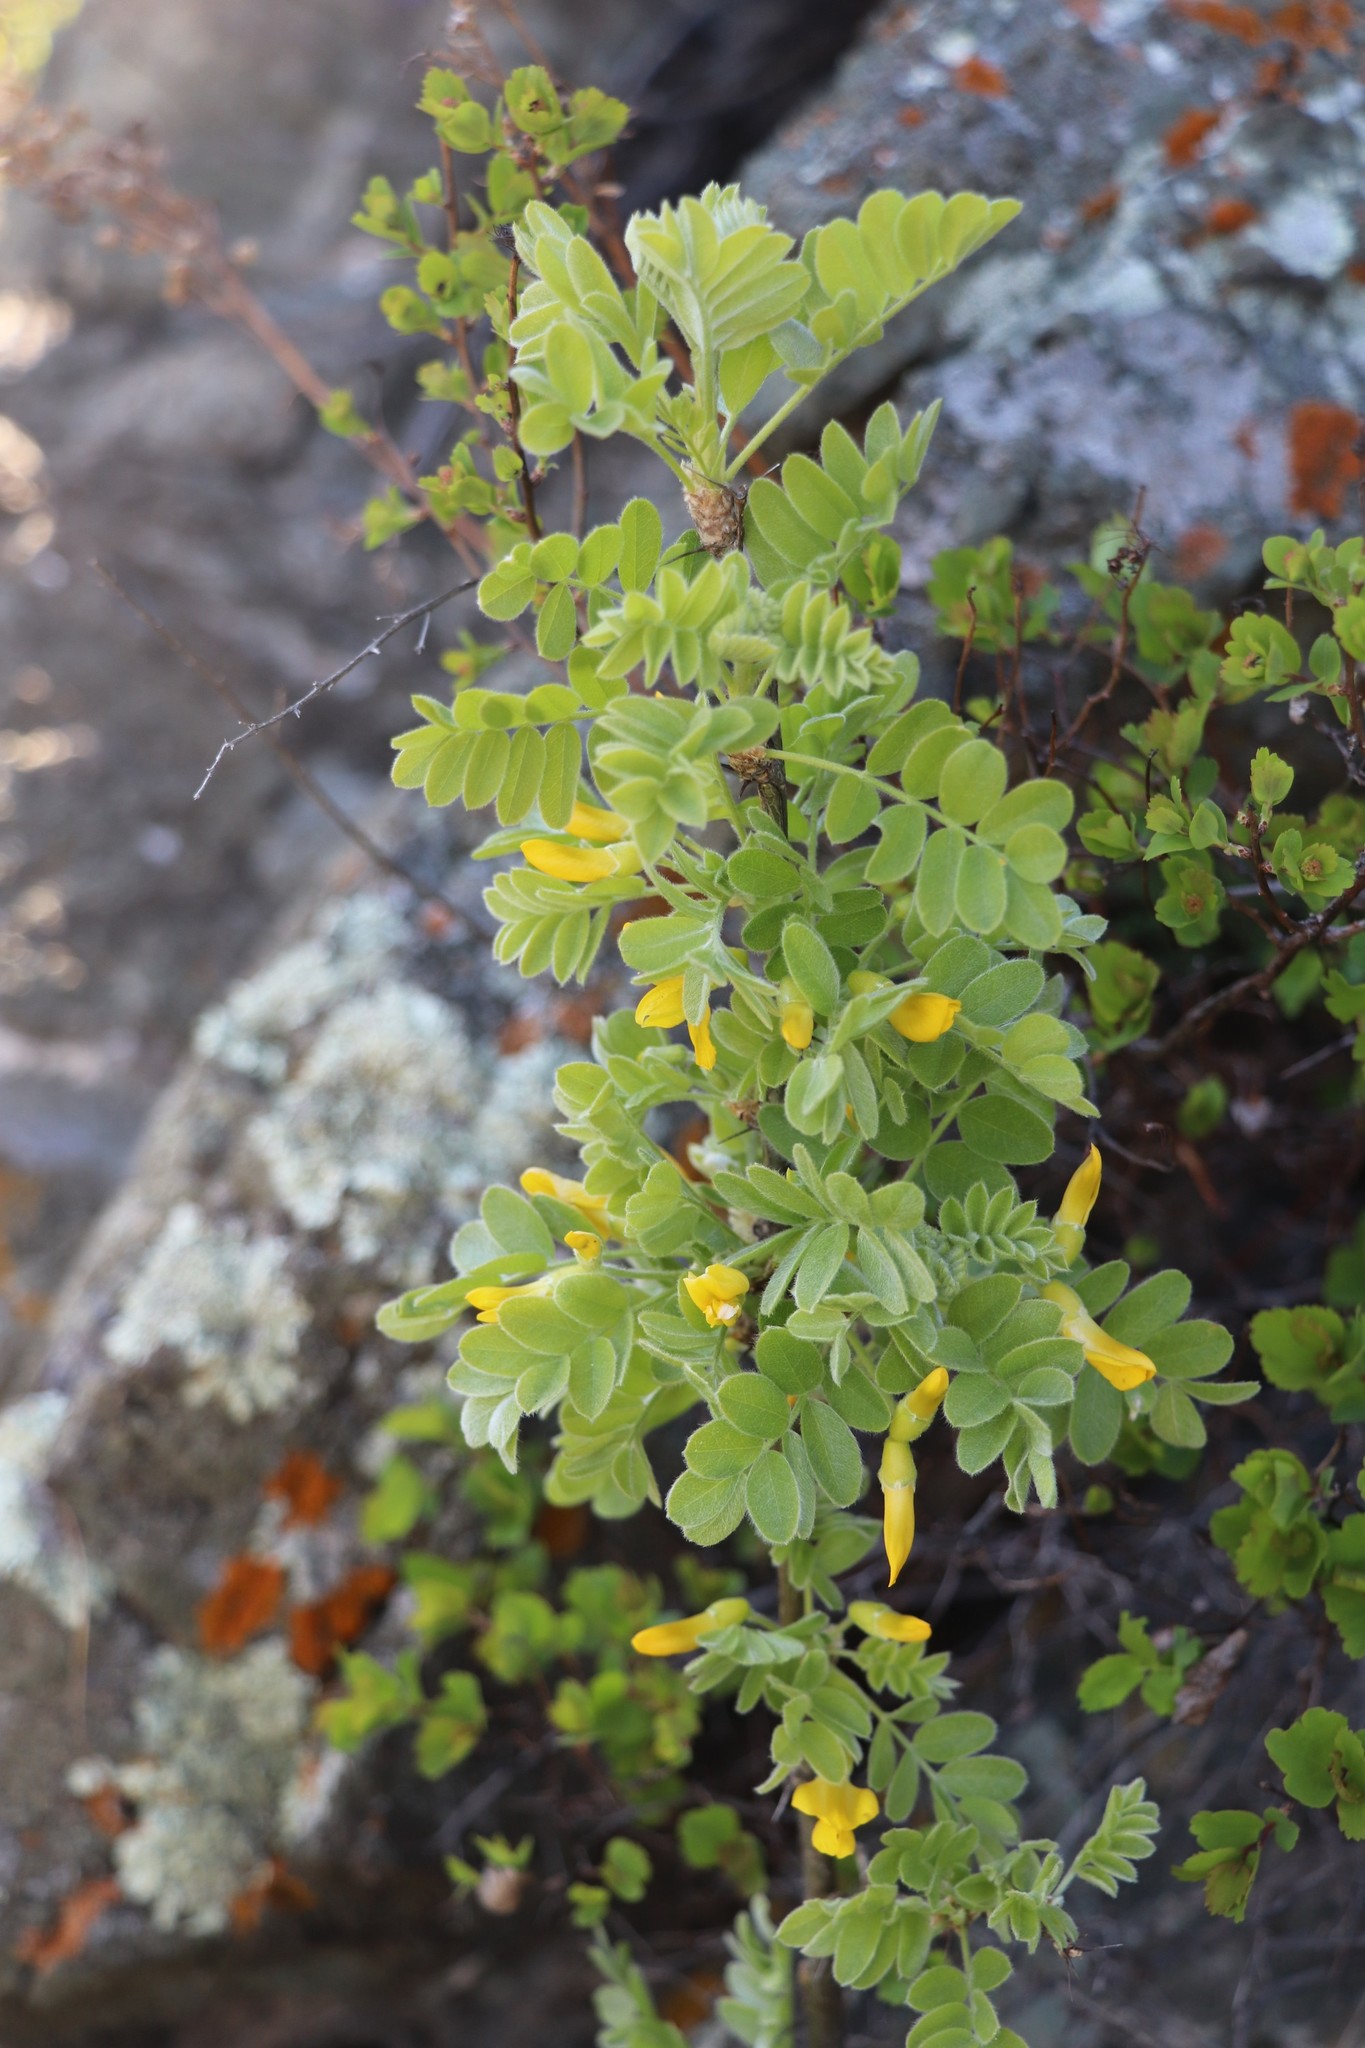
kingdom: Plantae
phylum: Tracheophyta
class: Magnoliopsida
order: Fabales
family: Fabaceae
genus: Caragana
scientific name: Caragana arborescens
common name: Siberian peashrub
